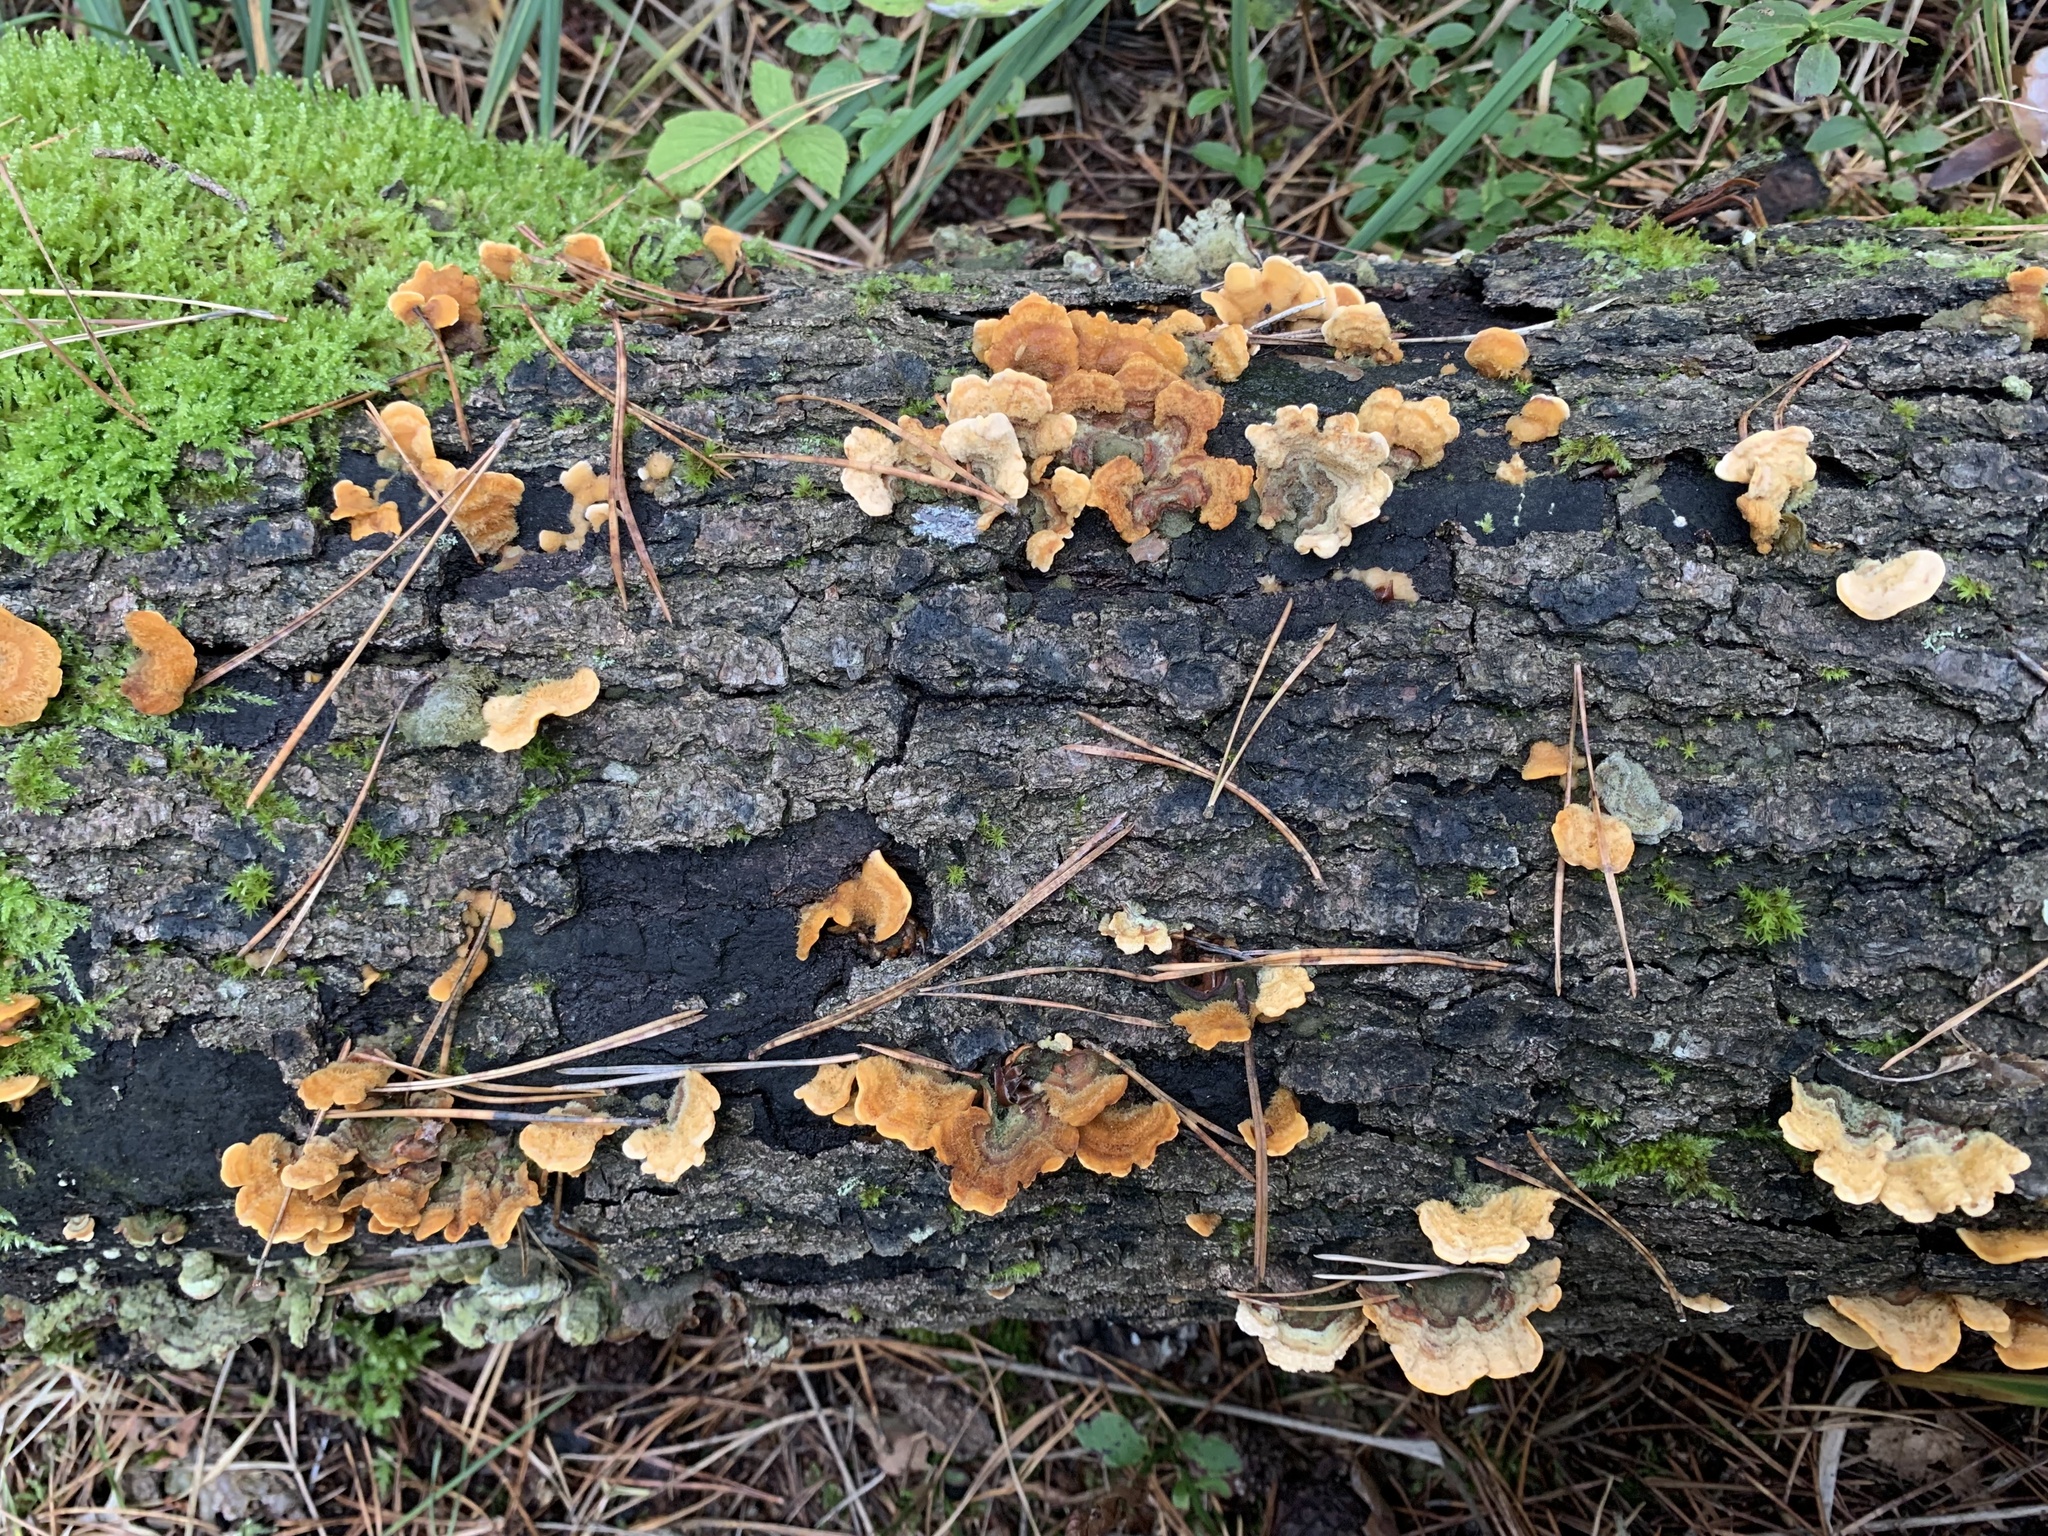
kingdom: Fungi
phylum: Basidiomycota
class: Agaricomycetes
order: Russulales
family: Stereaceae
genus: Stereum
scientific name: Stereum hirsutum
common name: Hairy curtain crust
